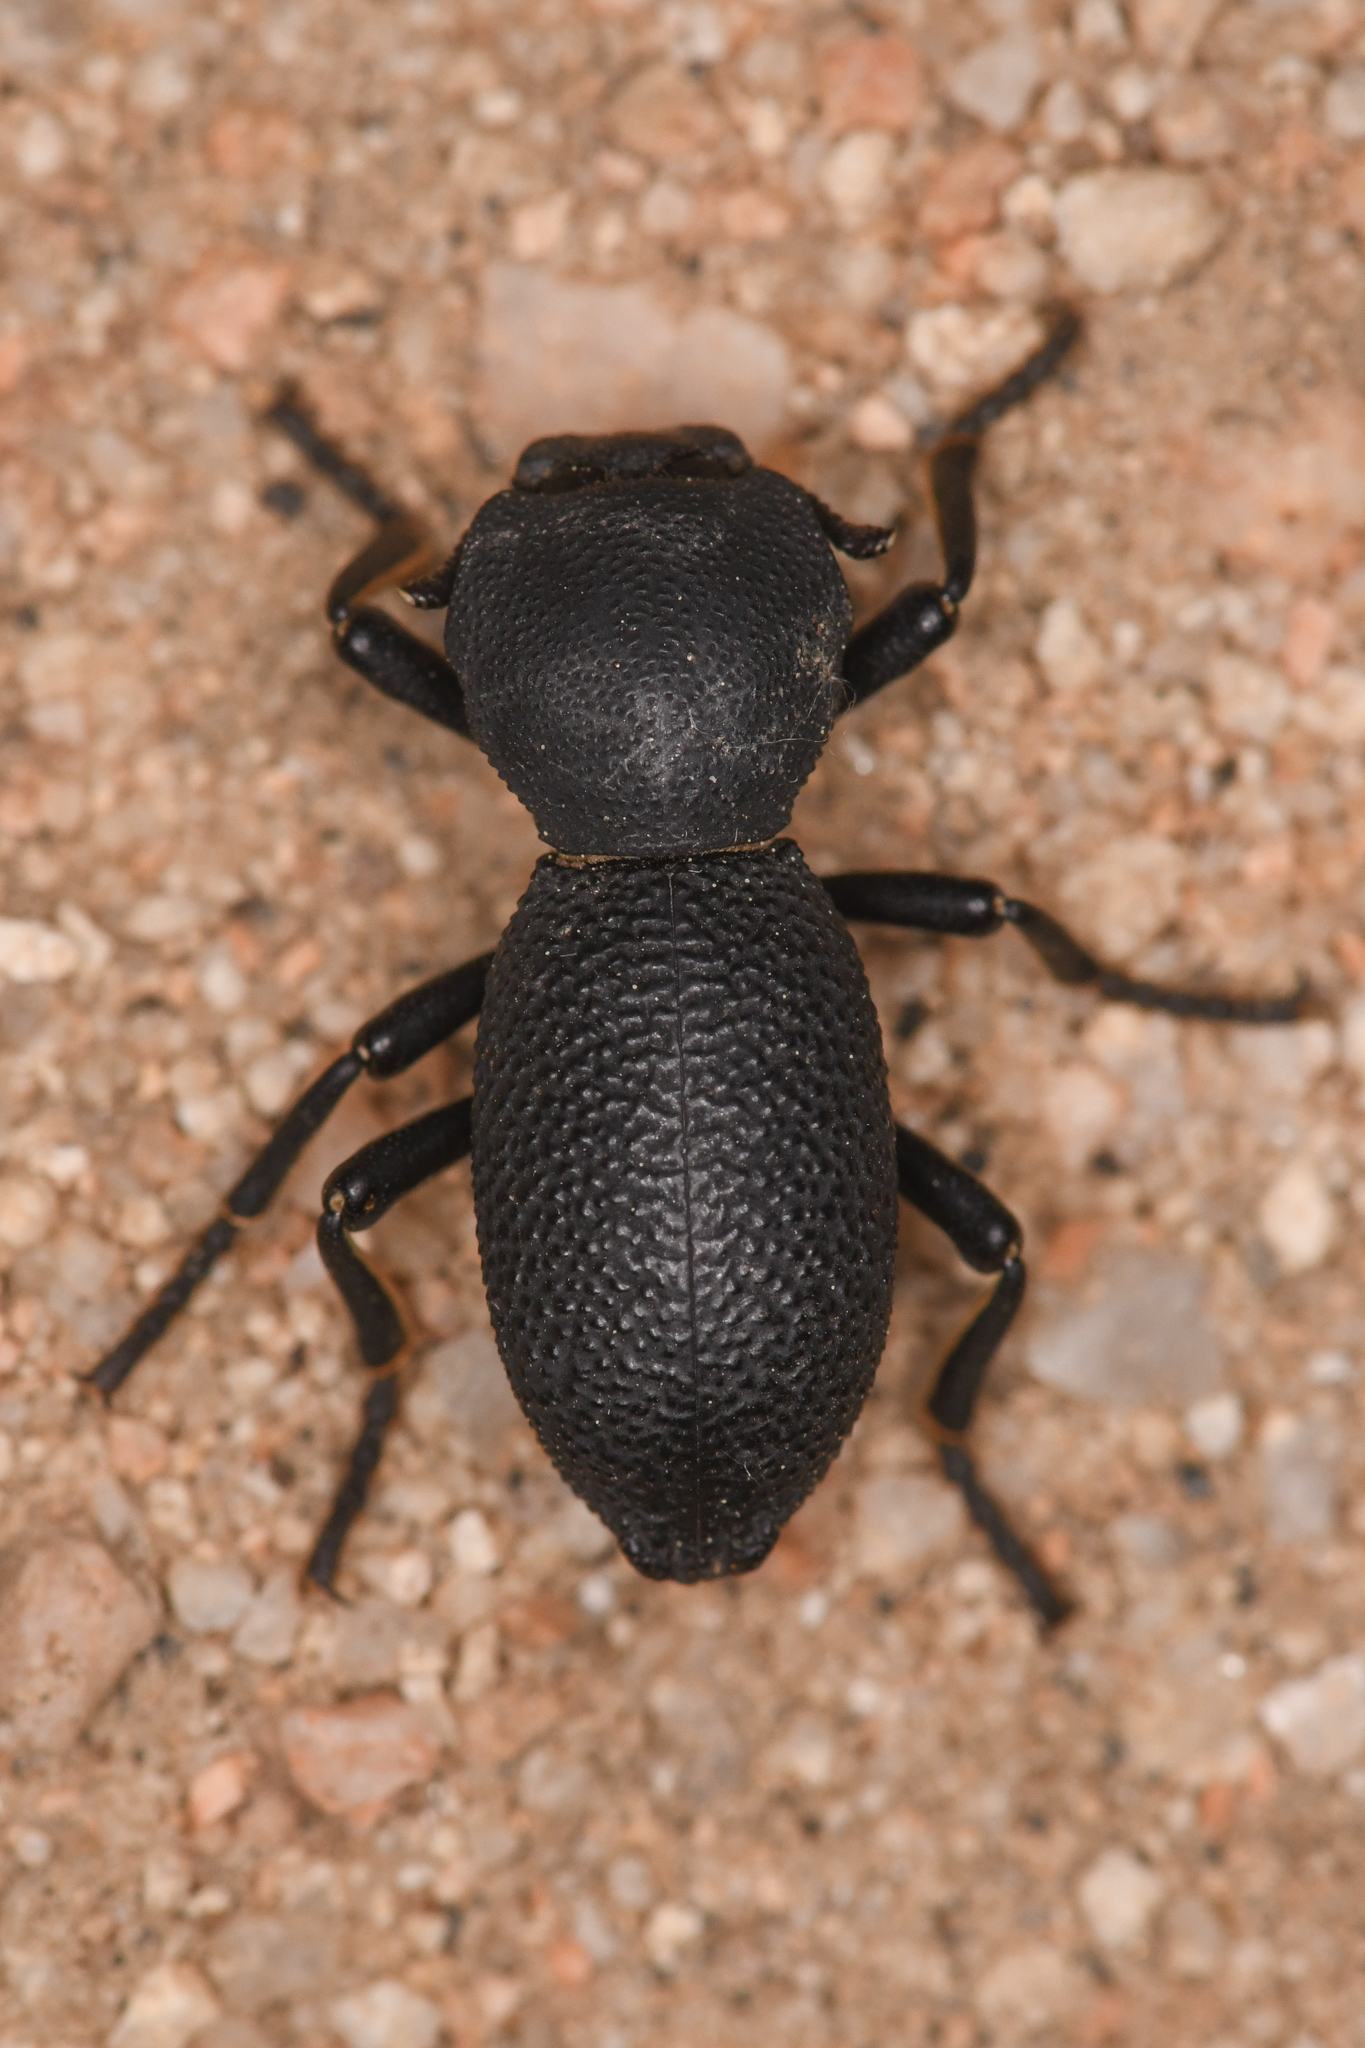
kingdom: Animalia
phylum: Arthropoda
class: Insecta
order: Coleoptera
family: Zopheridae
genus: Zopherus
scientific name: Zopherus granicollis
